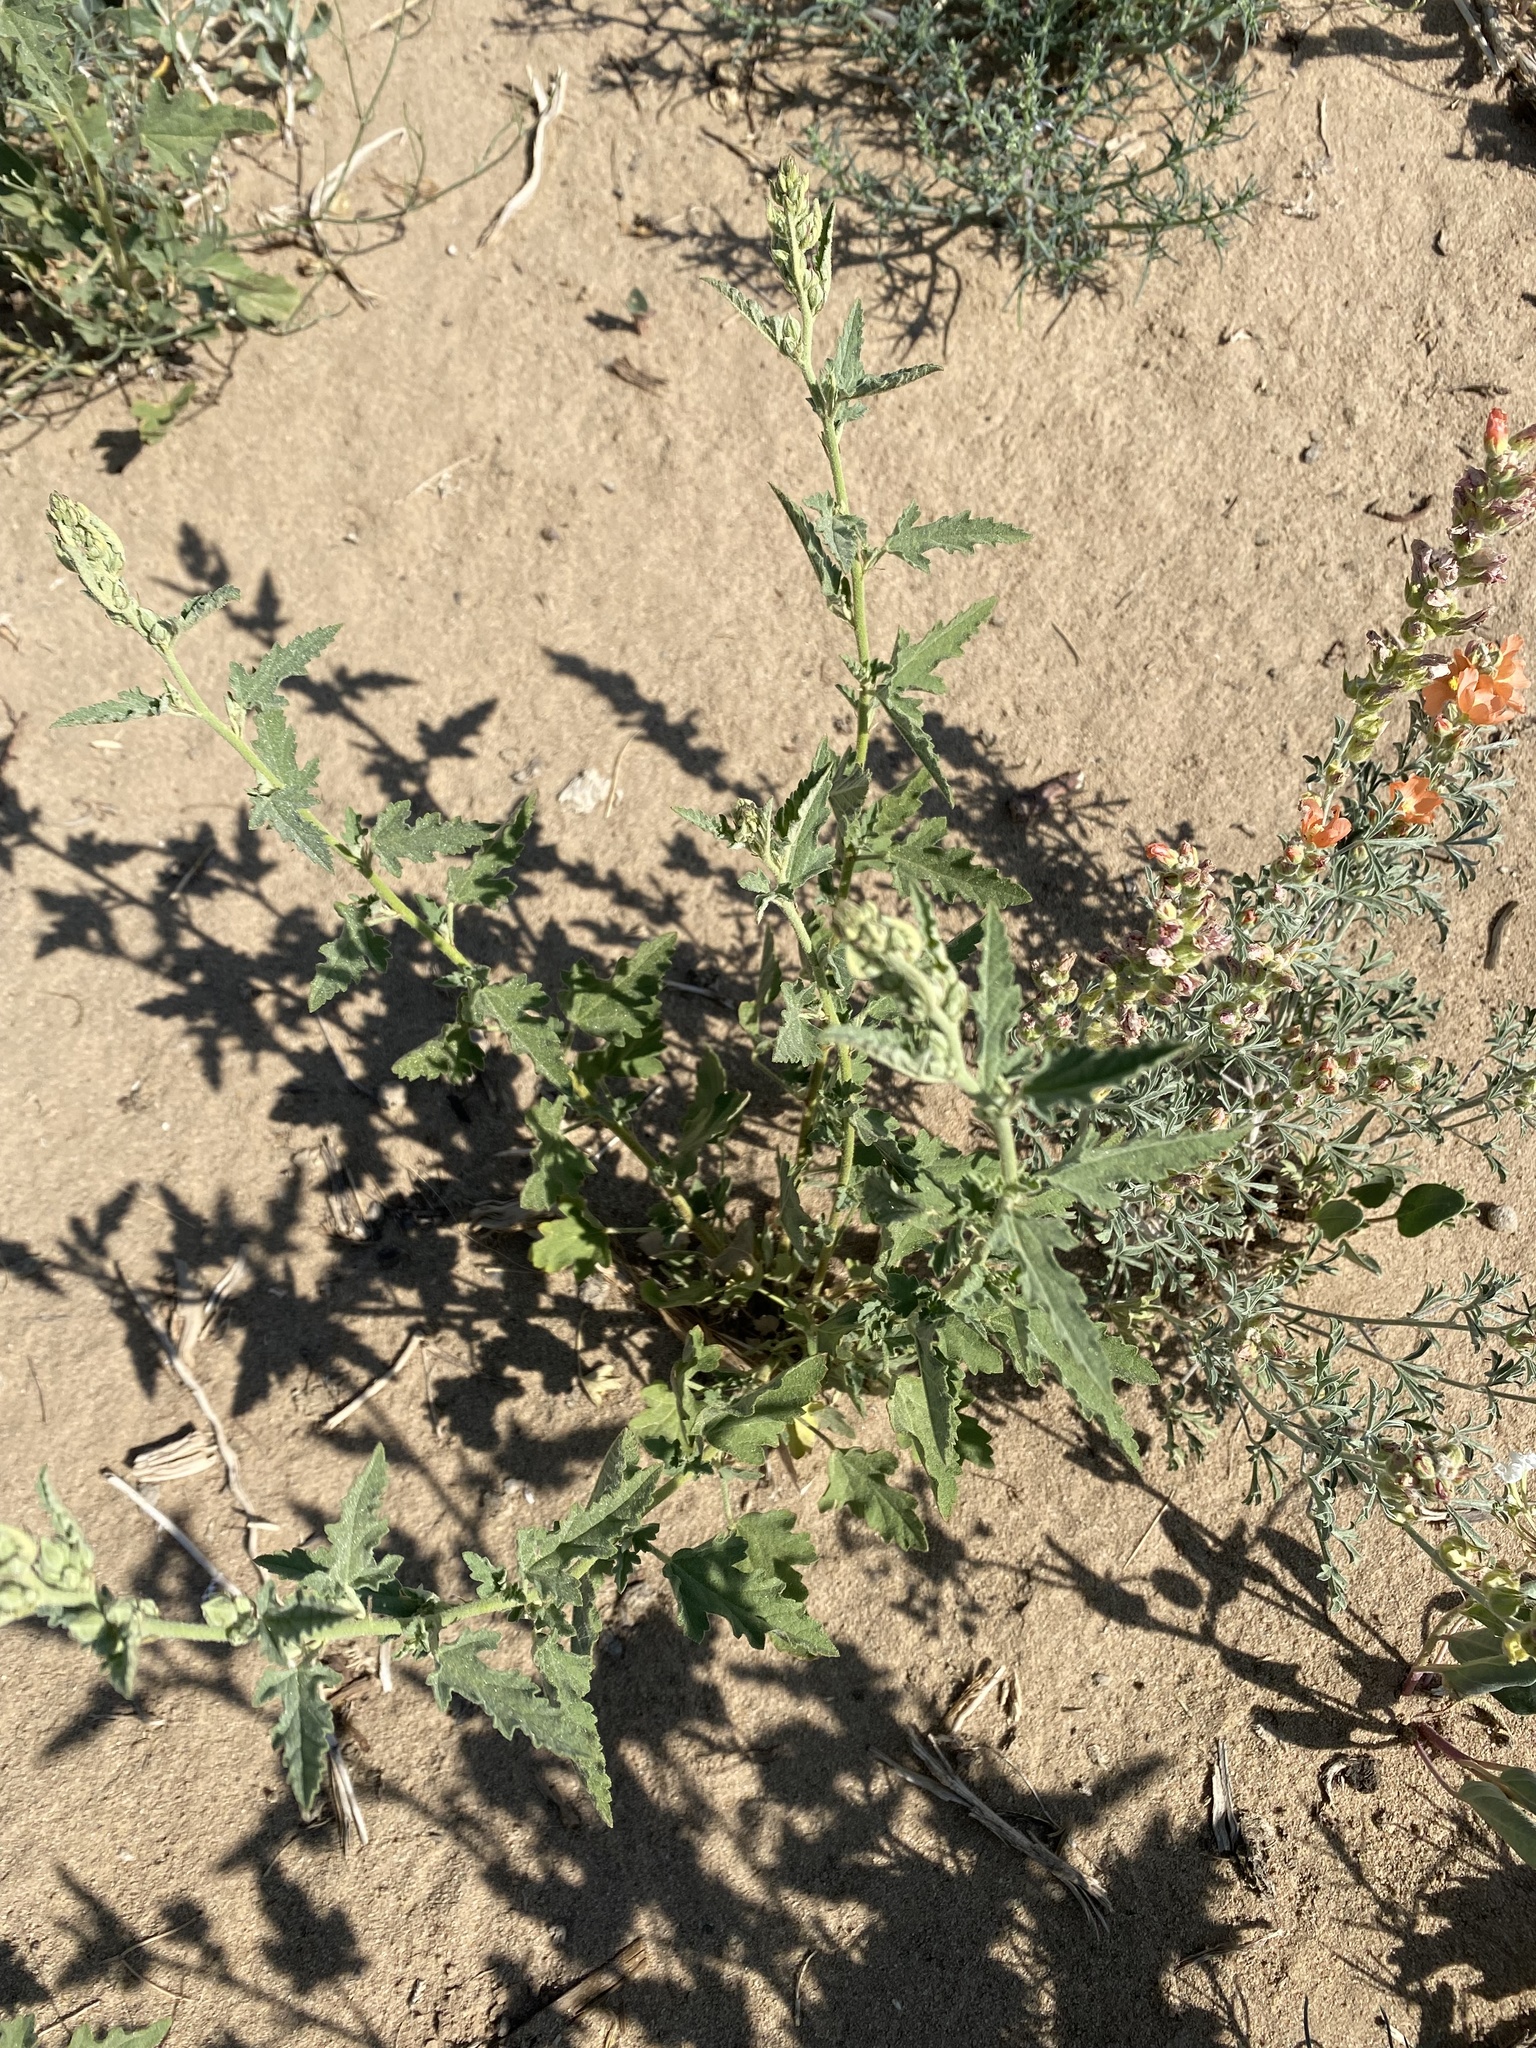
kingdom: Plantae
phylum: Tracheophyta
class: Magnoliopsida
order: Malvales
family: Malvaceae
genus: Sphaeralcea
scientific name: Sphaeralcea angustifolia
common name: Copper globe-mallow
